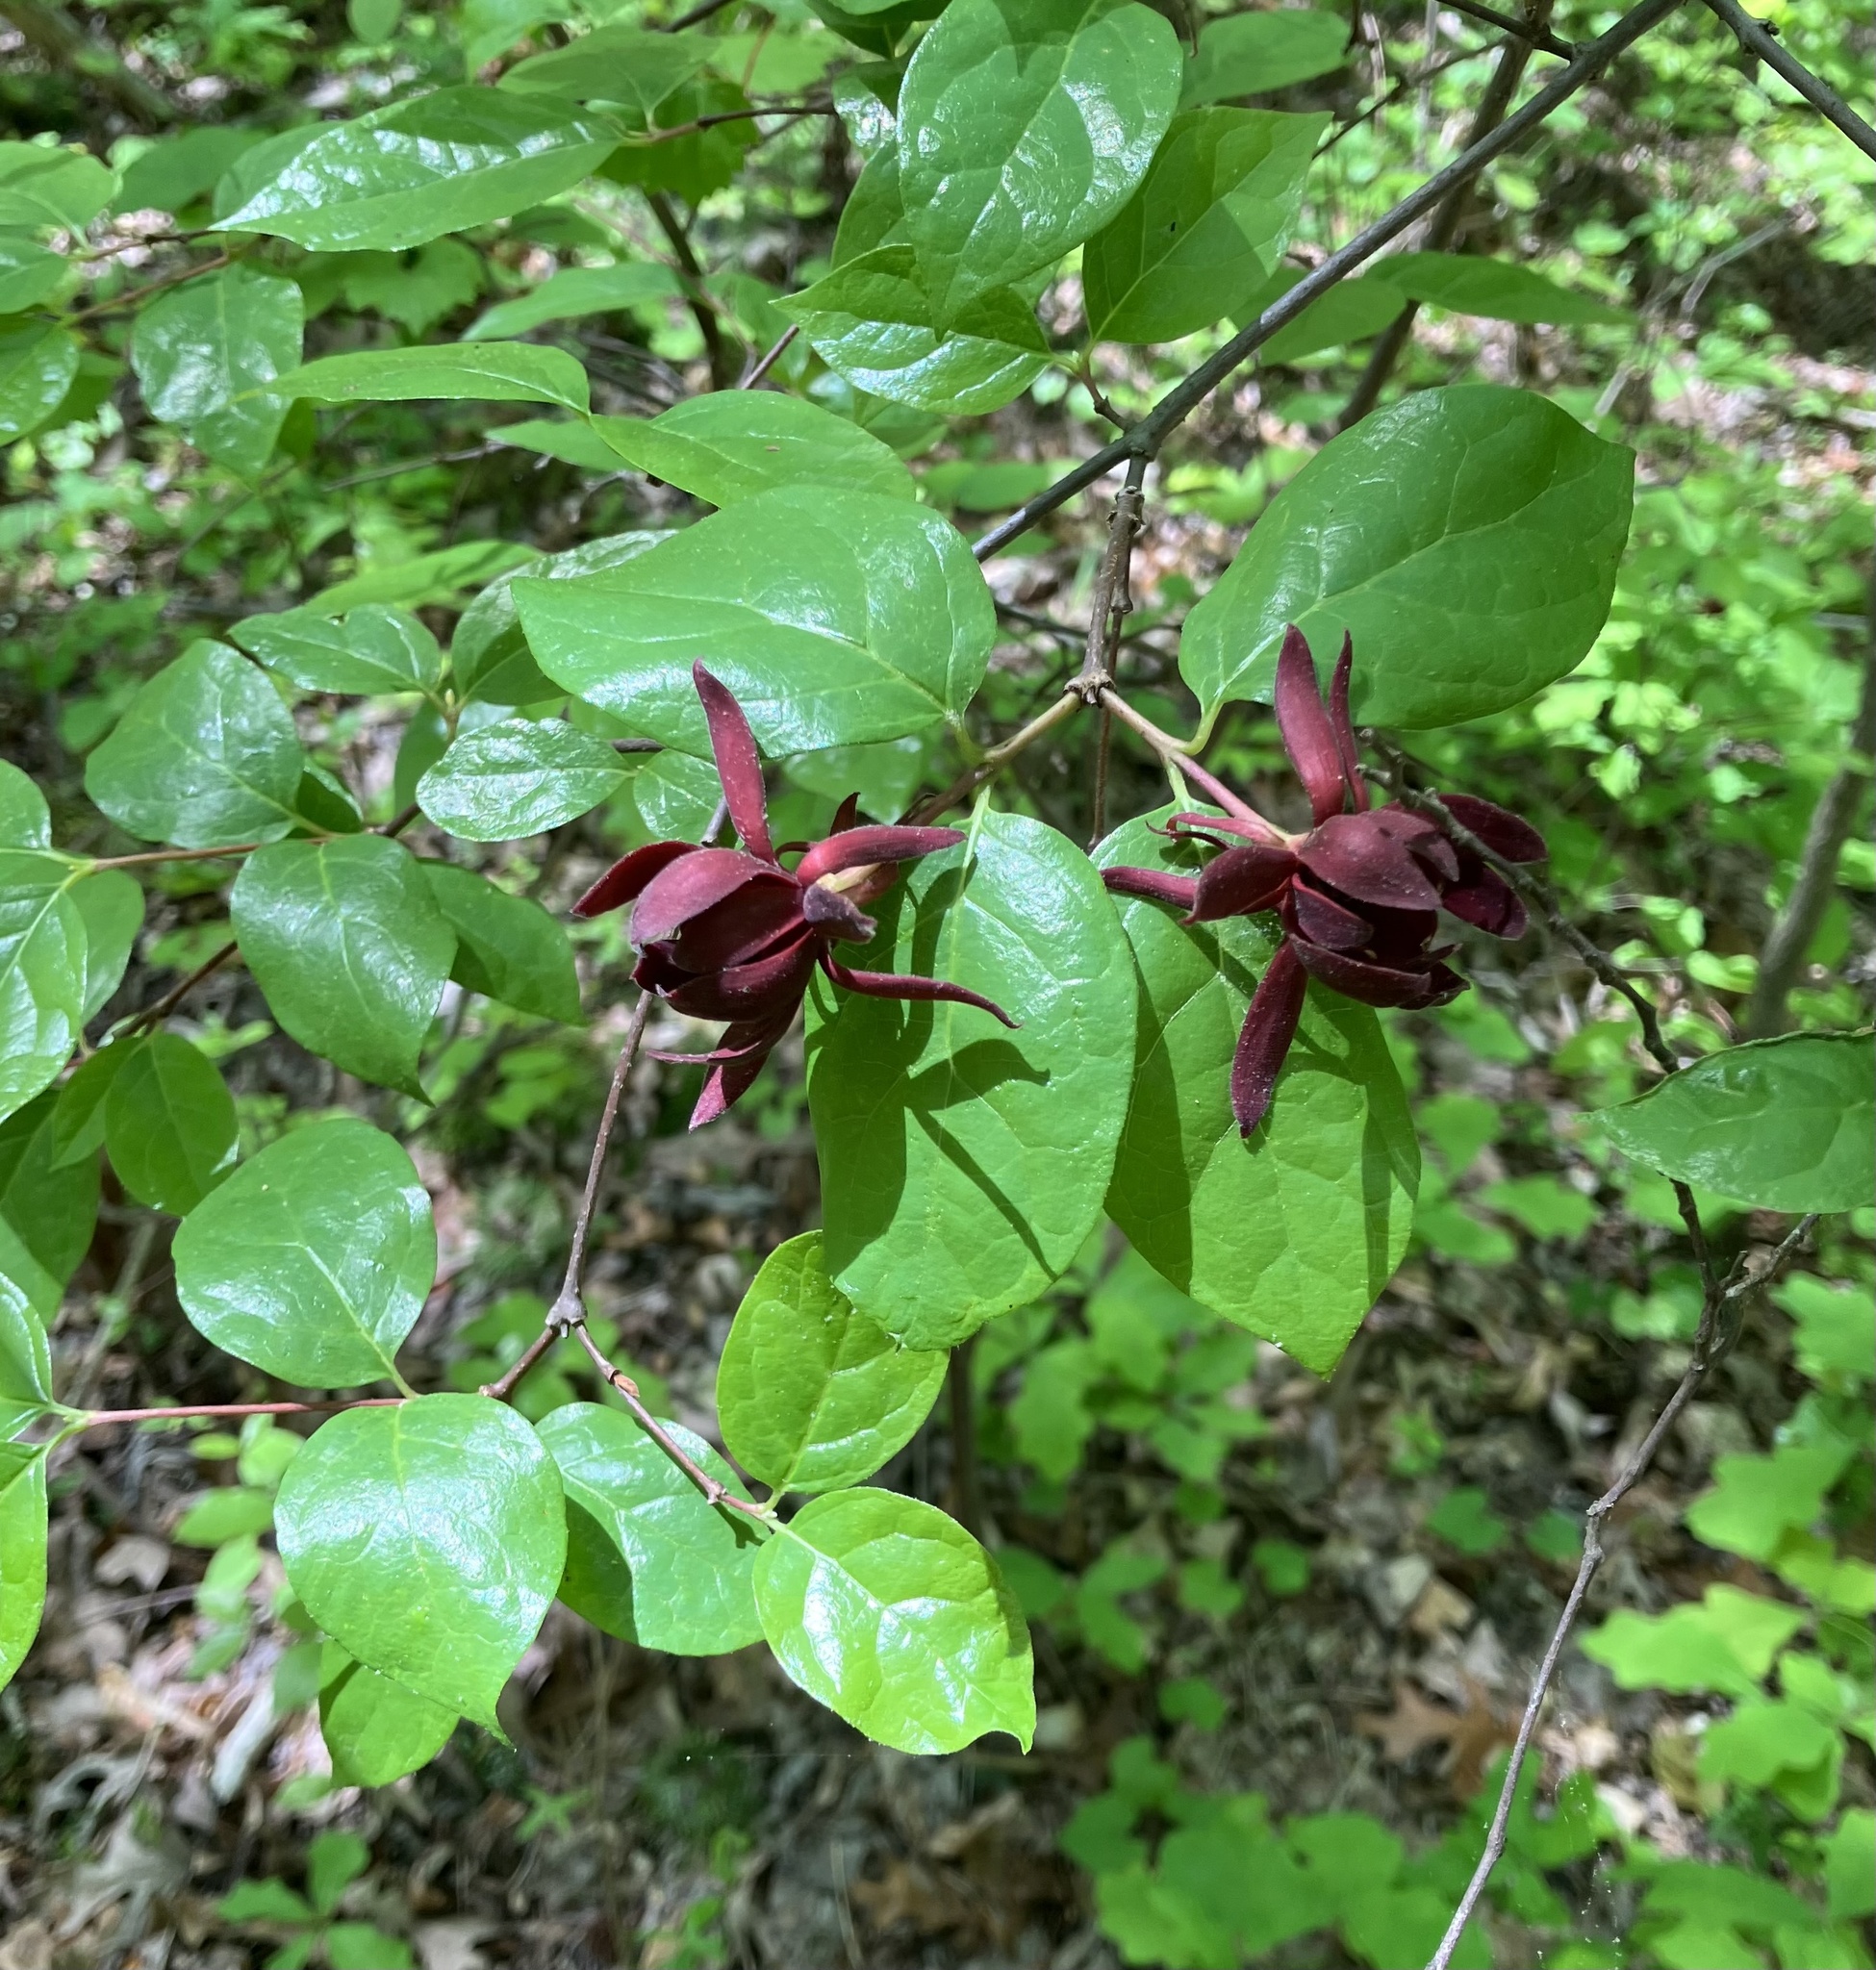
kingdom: Plantae
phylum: Tracheophyta
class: Magnoliopsida
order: Laurales
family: Calycanthaceae
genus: Calycanthus
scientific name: Calycanthus floridus
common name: Carolina-allspice
